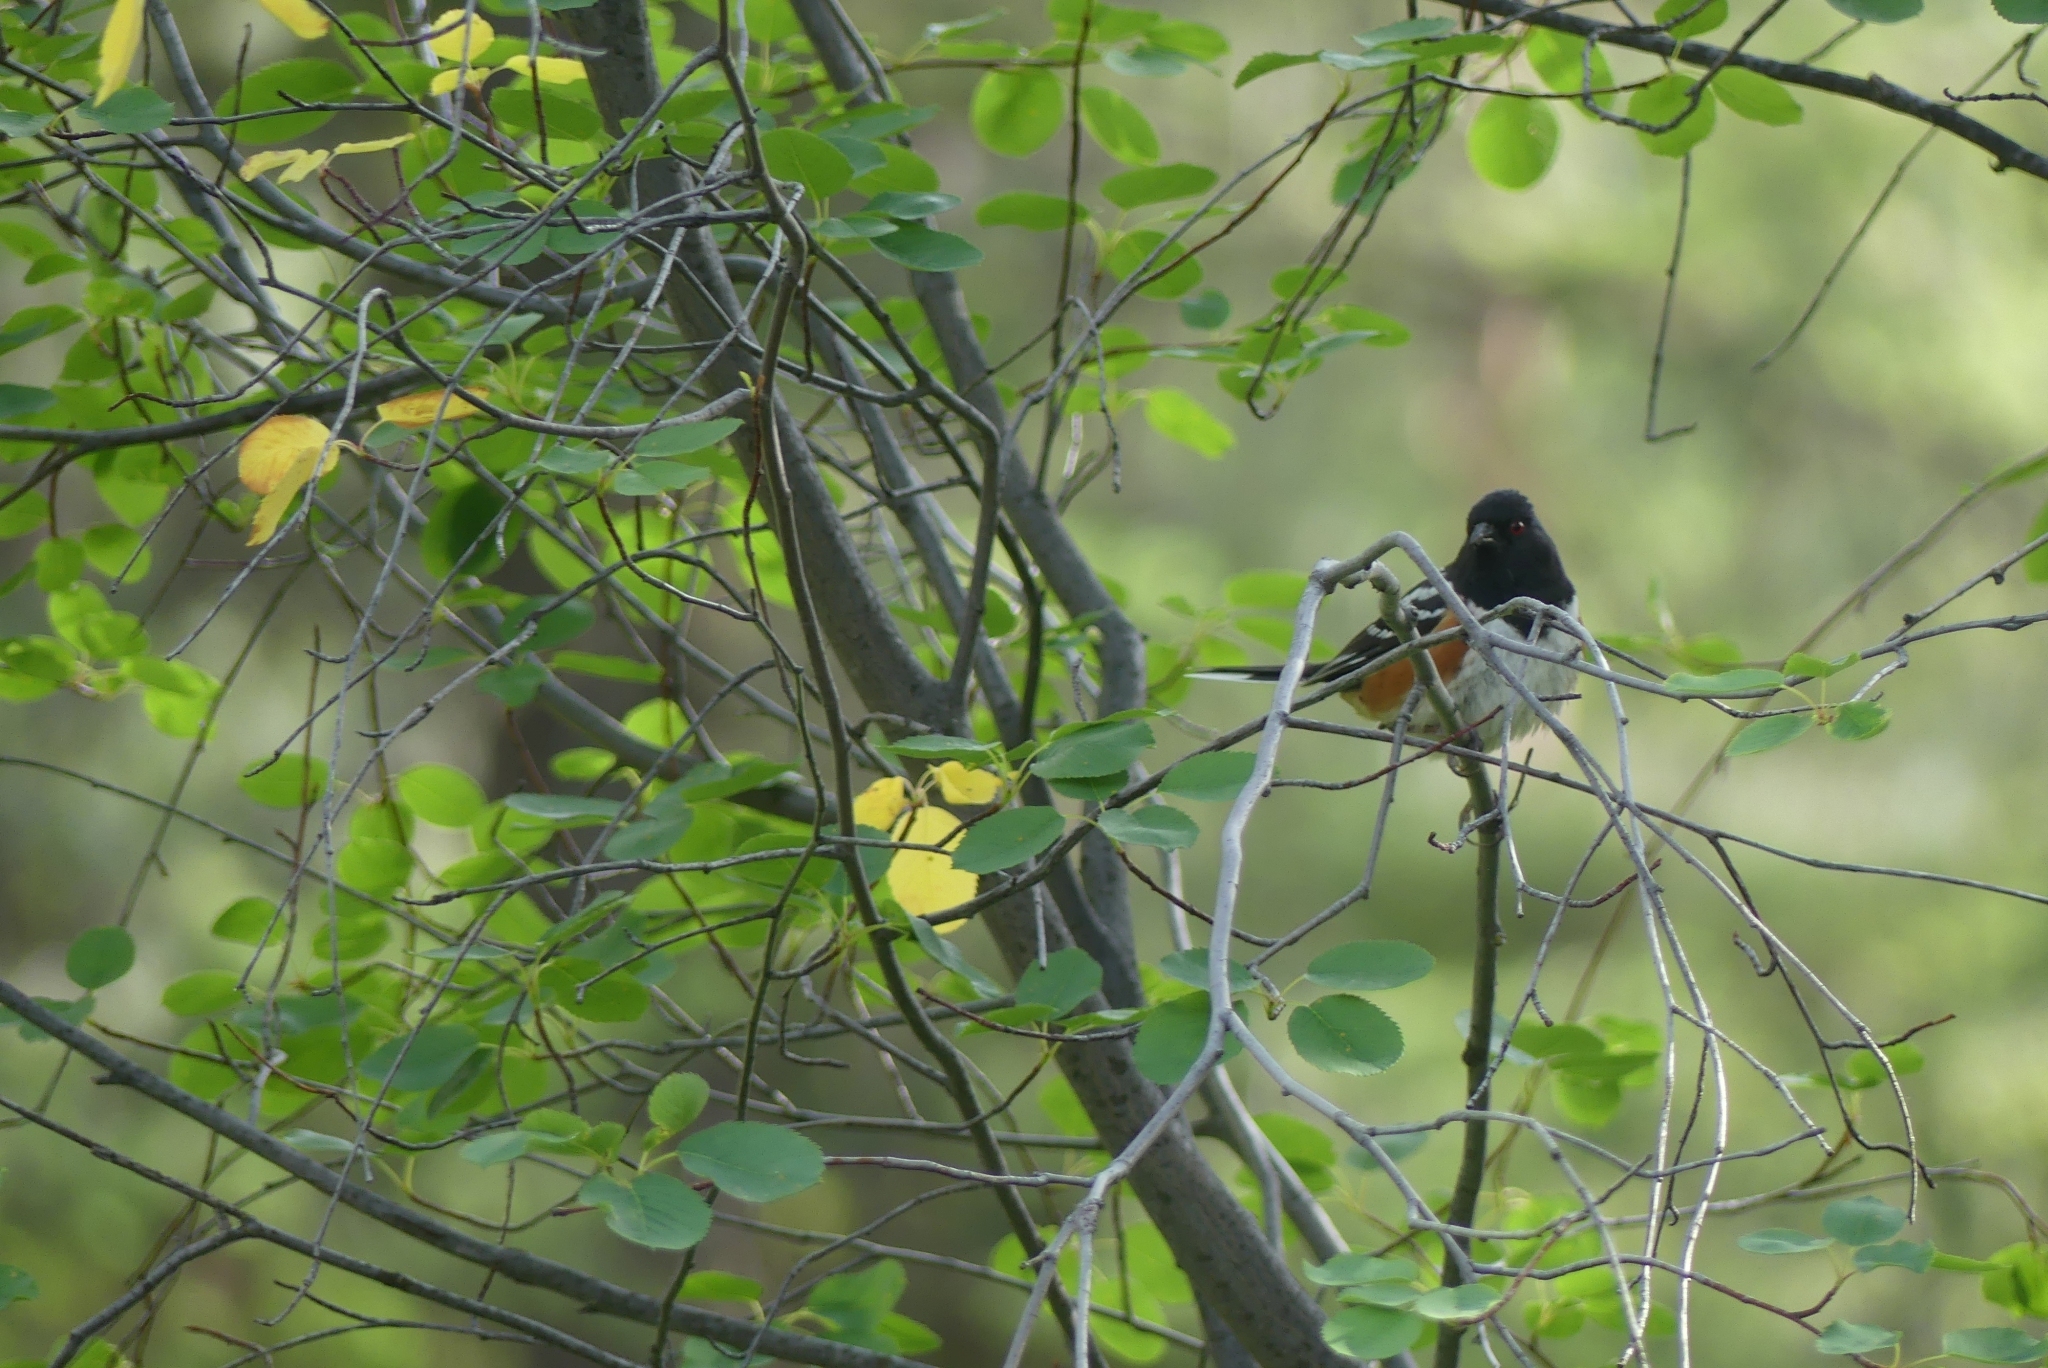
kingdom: Animalia
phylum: Chordata
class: Aves
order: Passeriformes
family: Passerellidae
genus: Pipilo
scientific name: Pipilo maculatus
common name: Spotted towhee
